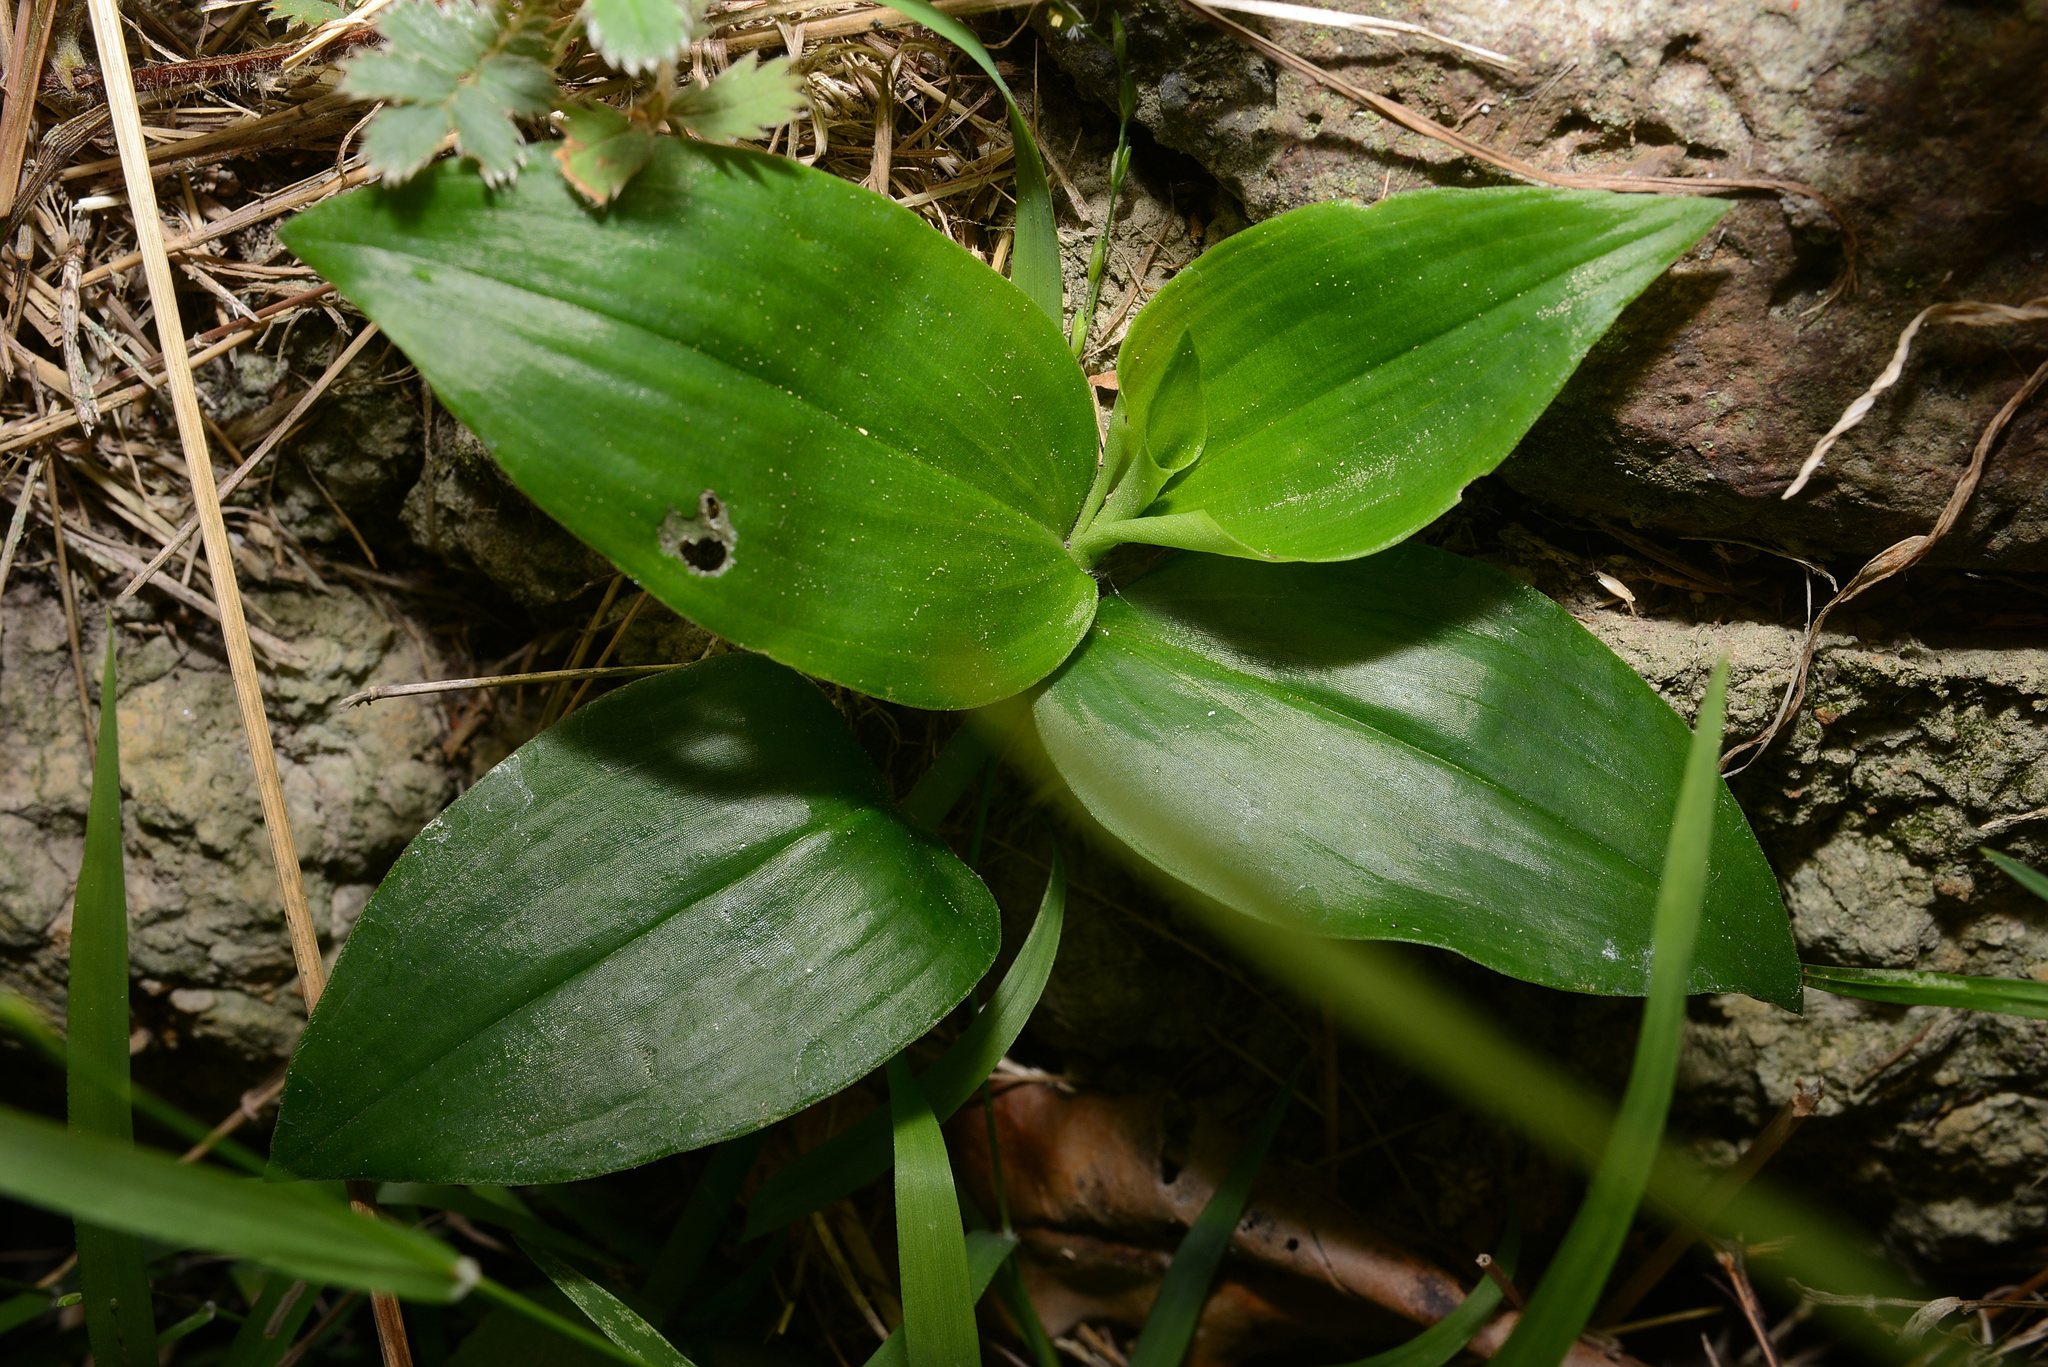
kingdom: Plantae
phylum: Tracheophyta
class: Liliopsida
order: Commelinales
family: Commelinaceae
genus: Tradescantia
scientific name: Tradescantia fluminensis
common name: Wandering-jew
